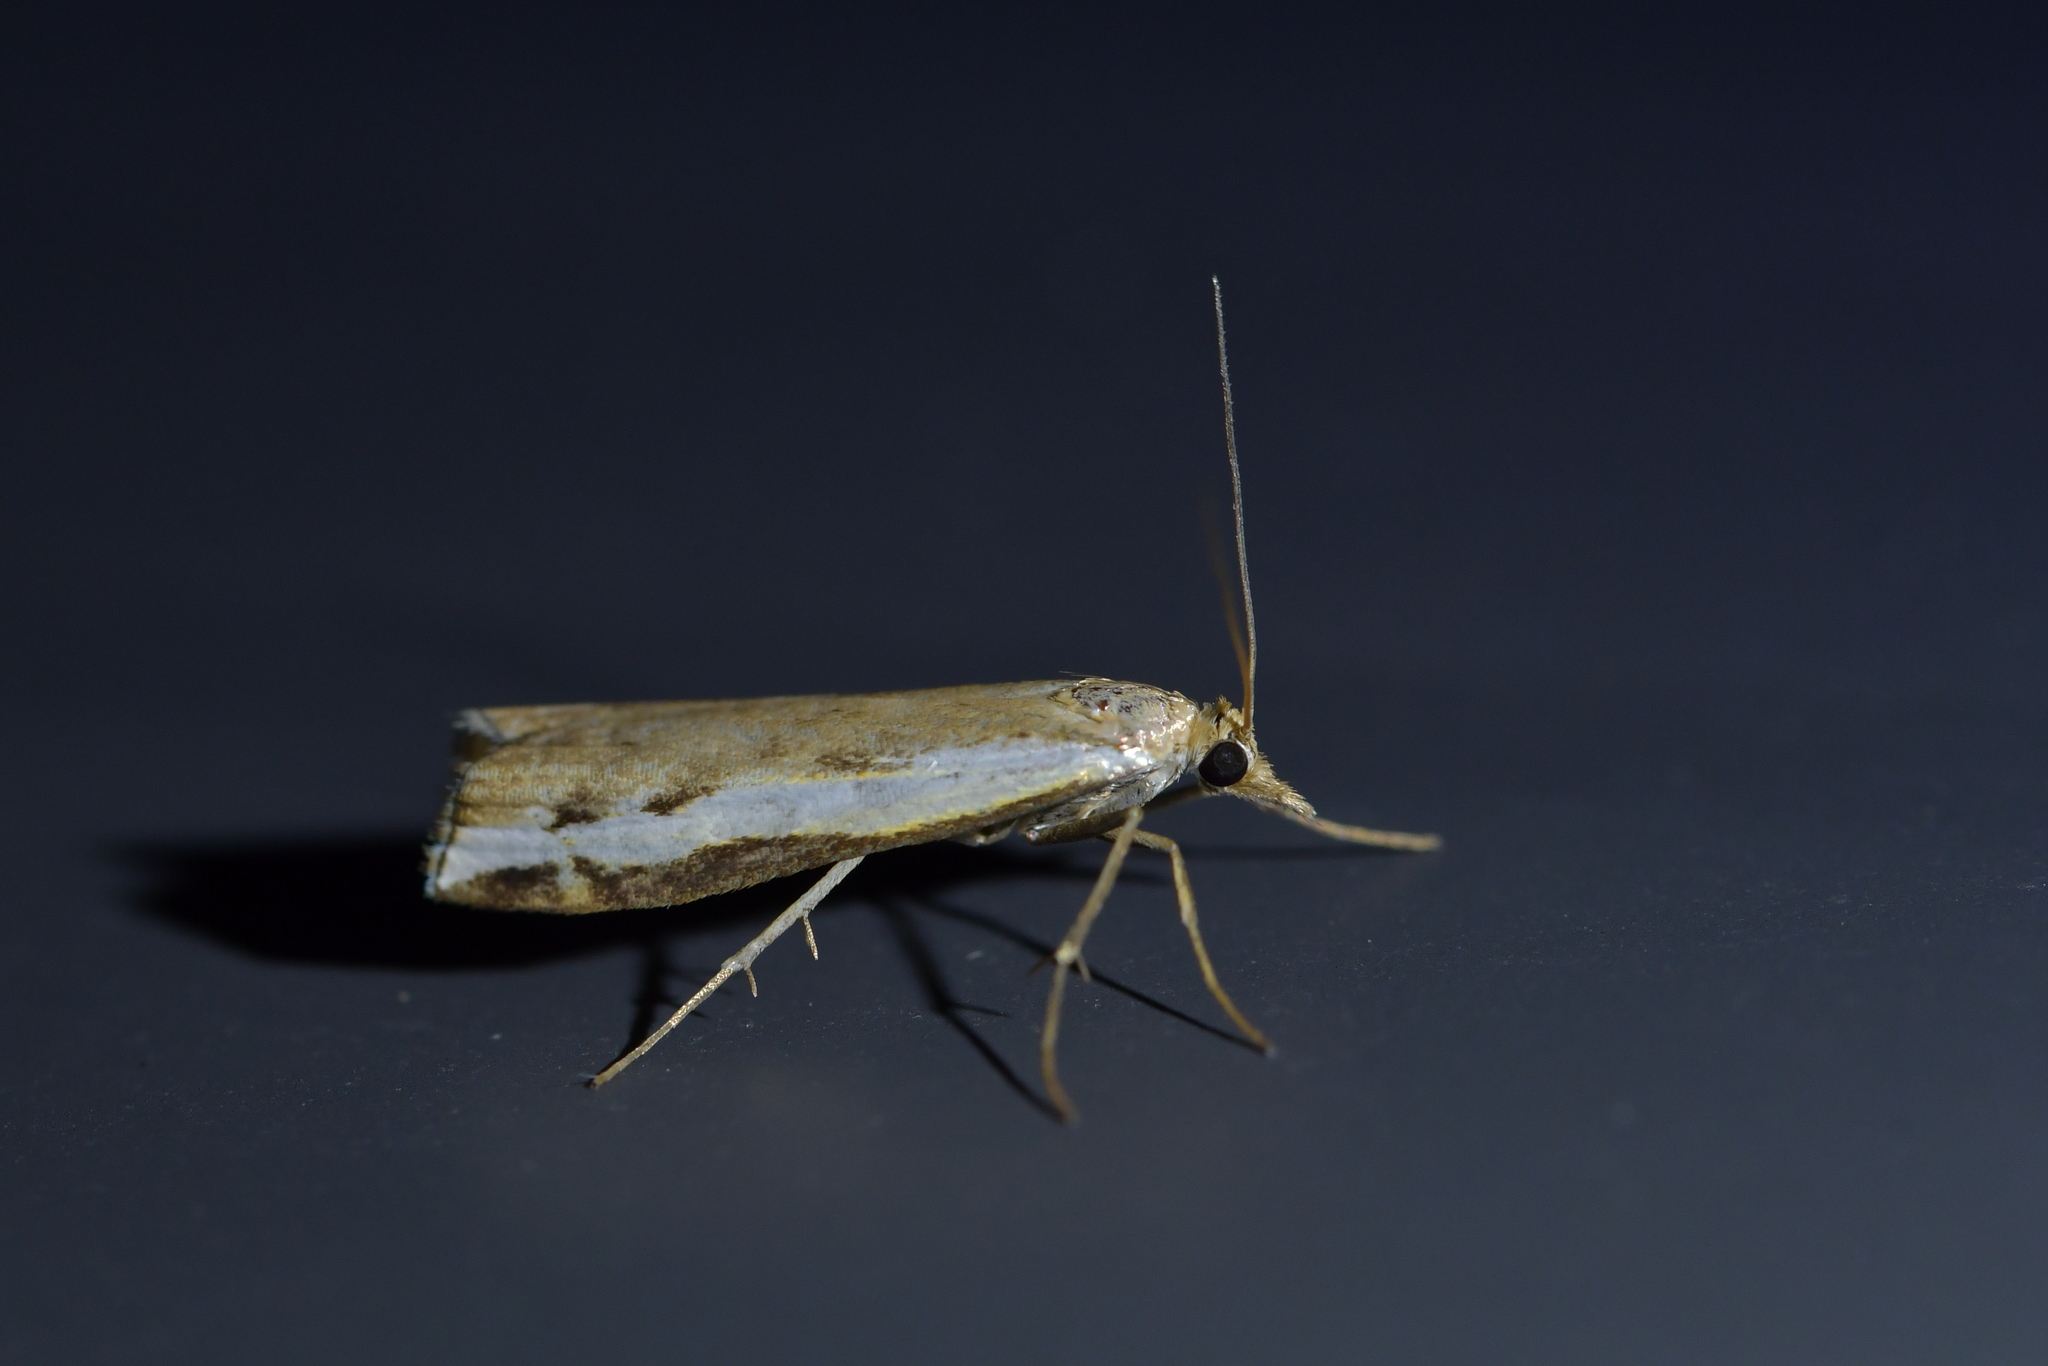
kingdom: Animalia
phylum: Arthropoda
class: Insecta
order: Lepidoptera
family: Crambidae
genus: Orocrambus
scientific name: Orocrambus flexuosellus
